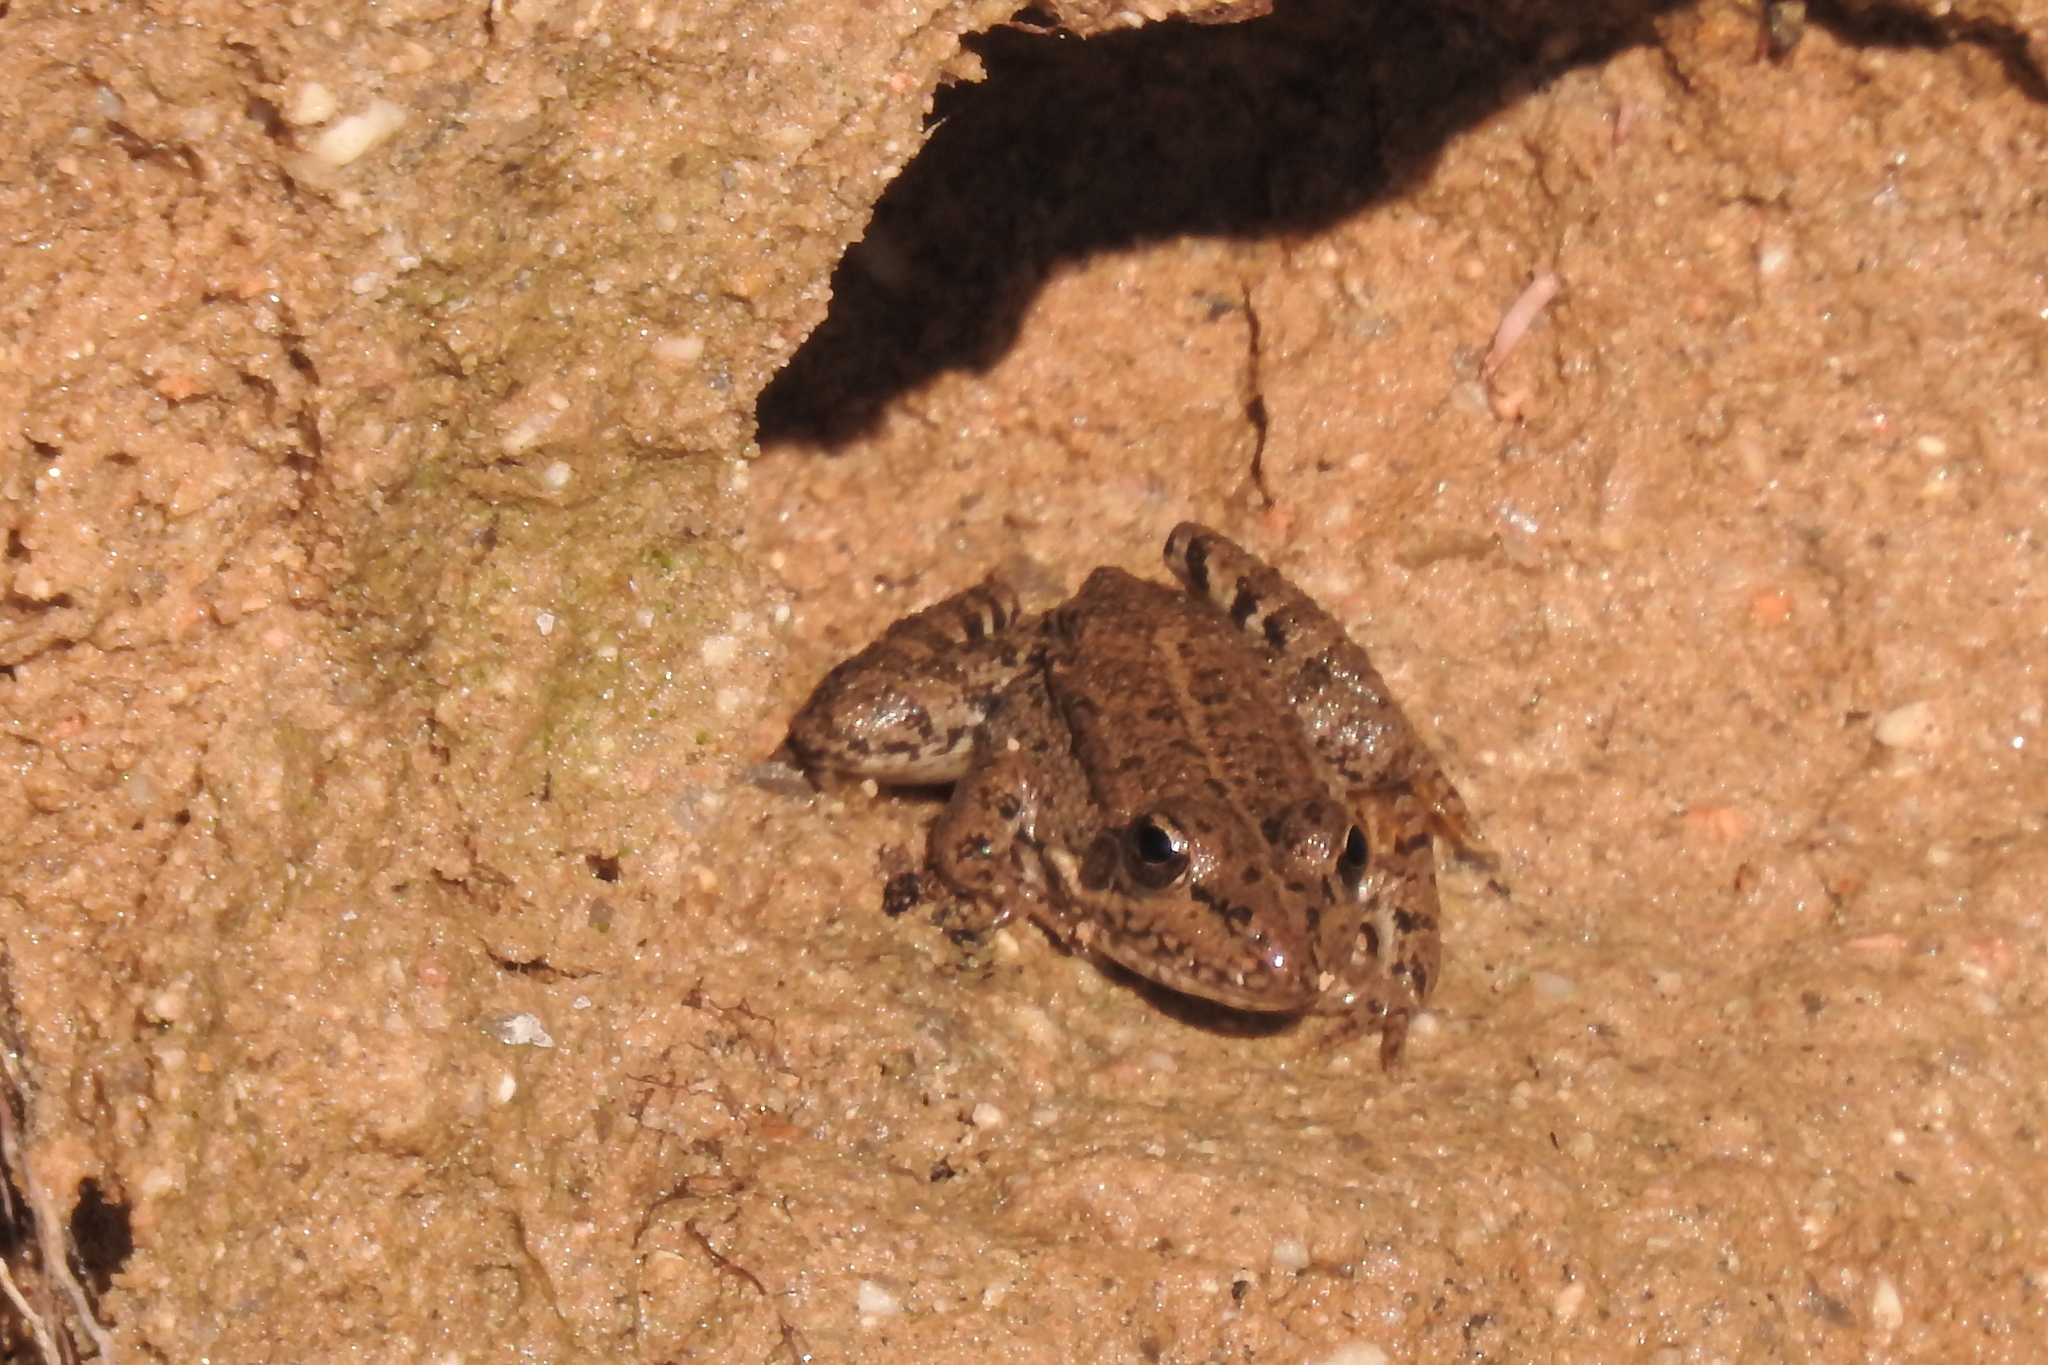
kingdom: Animalia
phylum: Chordata
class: Amphibia
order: Anura
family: Ranidae
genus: Pelophylax
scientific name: Pelophylax perezi
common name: Perez's frog
